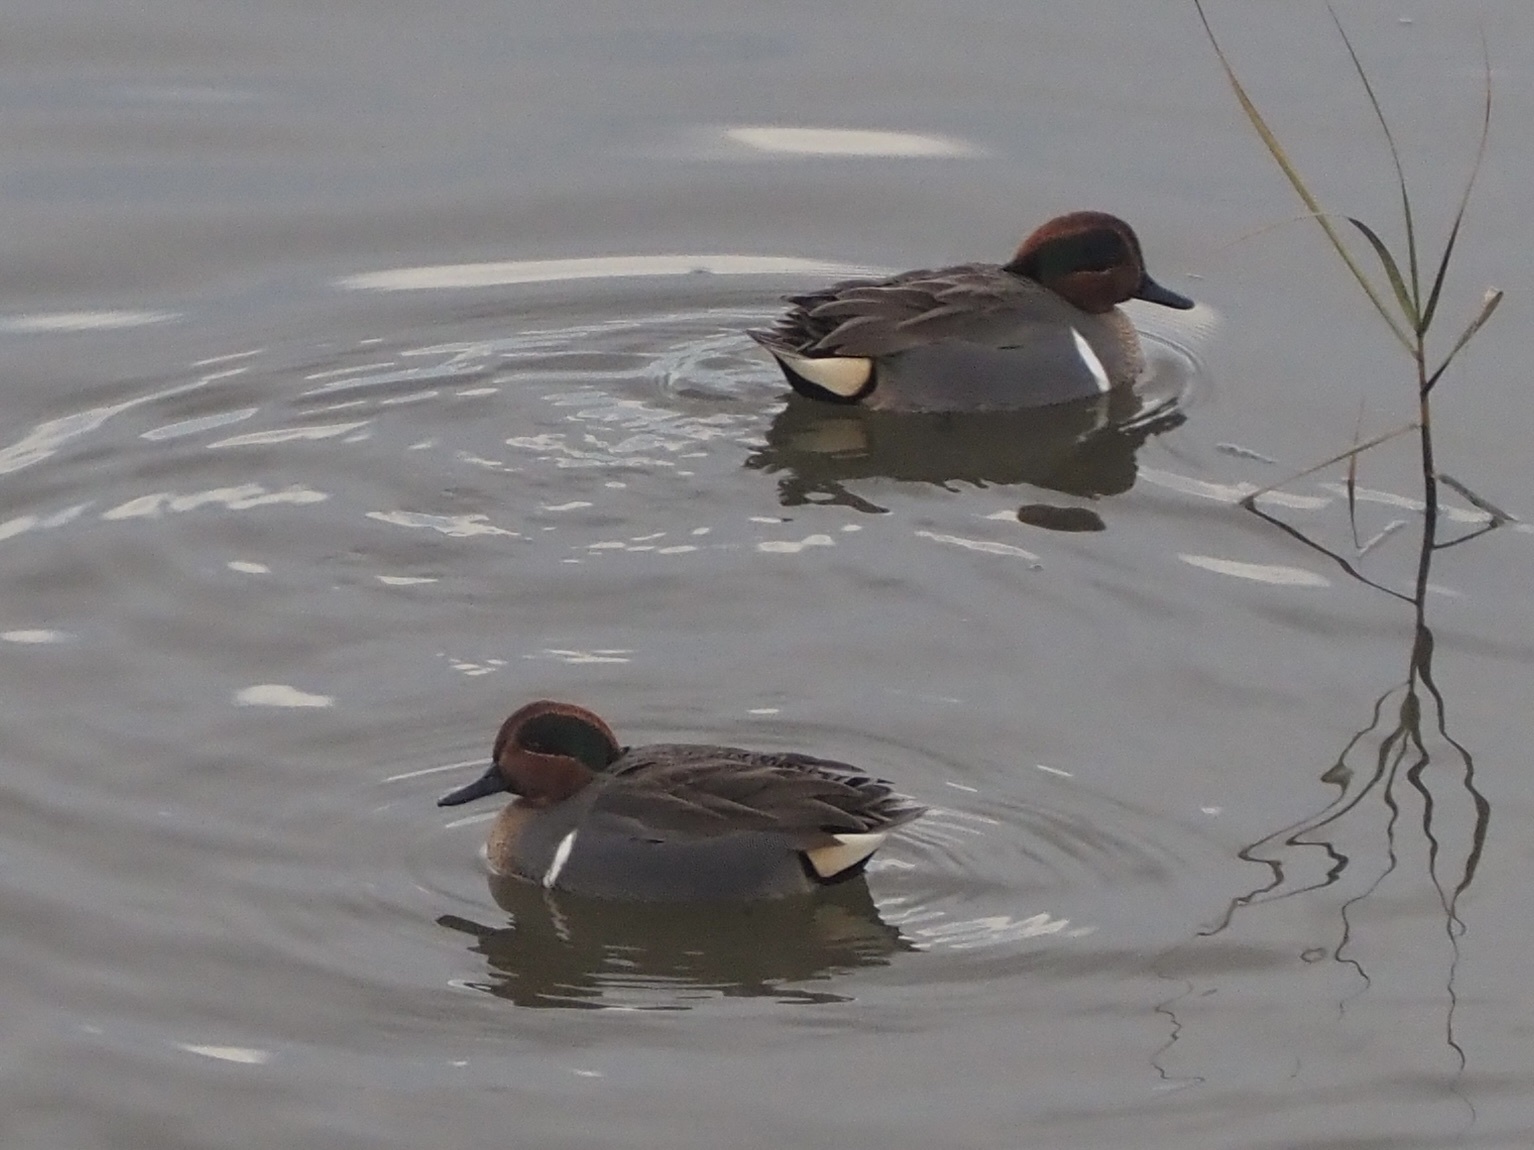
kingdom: Animalia
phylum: Chordata
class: Aves
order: Anseriformes
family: Anatidae
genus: Anas
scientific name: Anas crecca
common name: Eurasian teal
